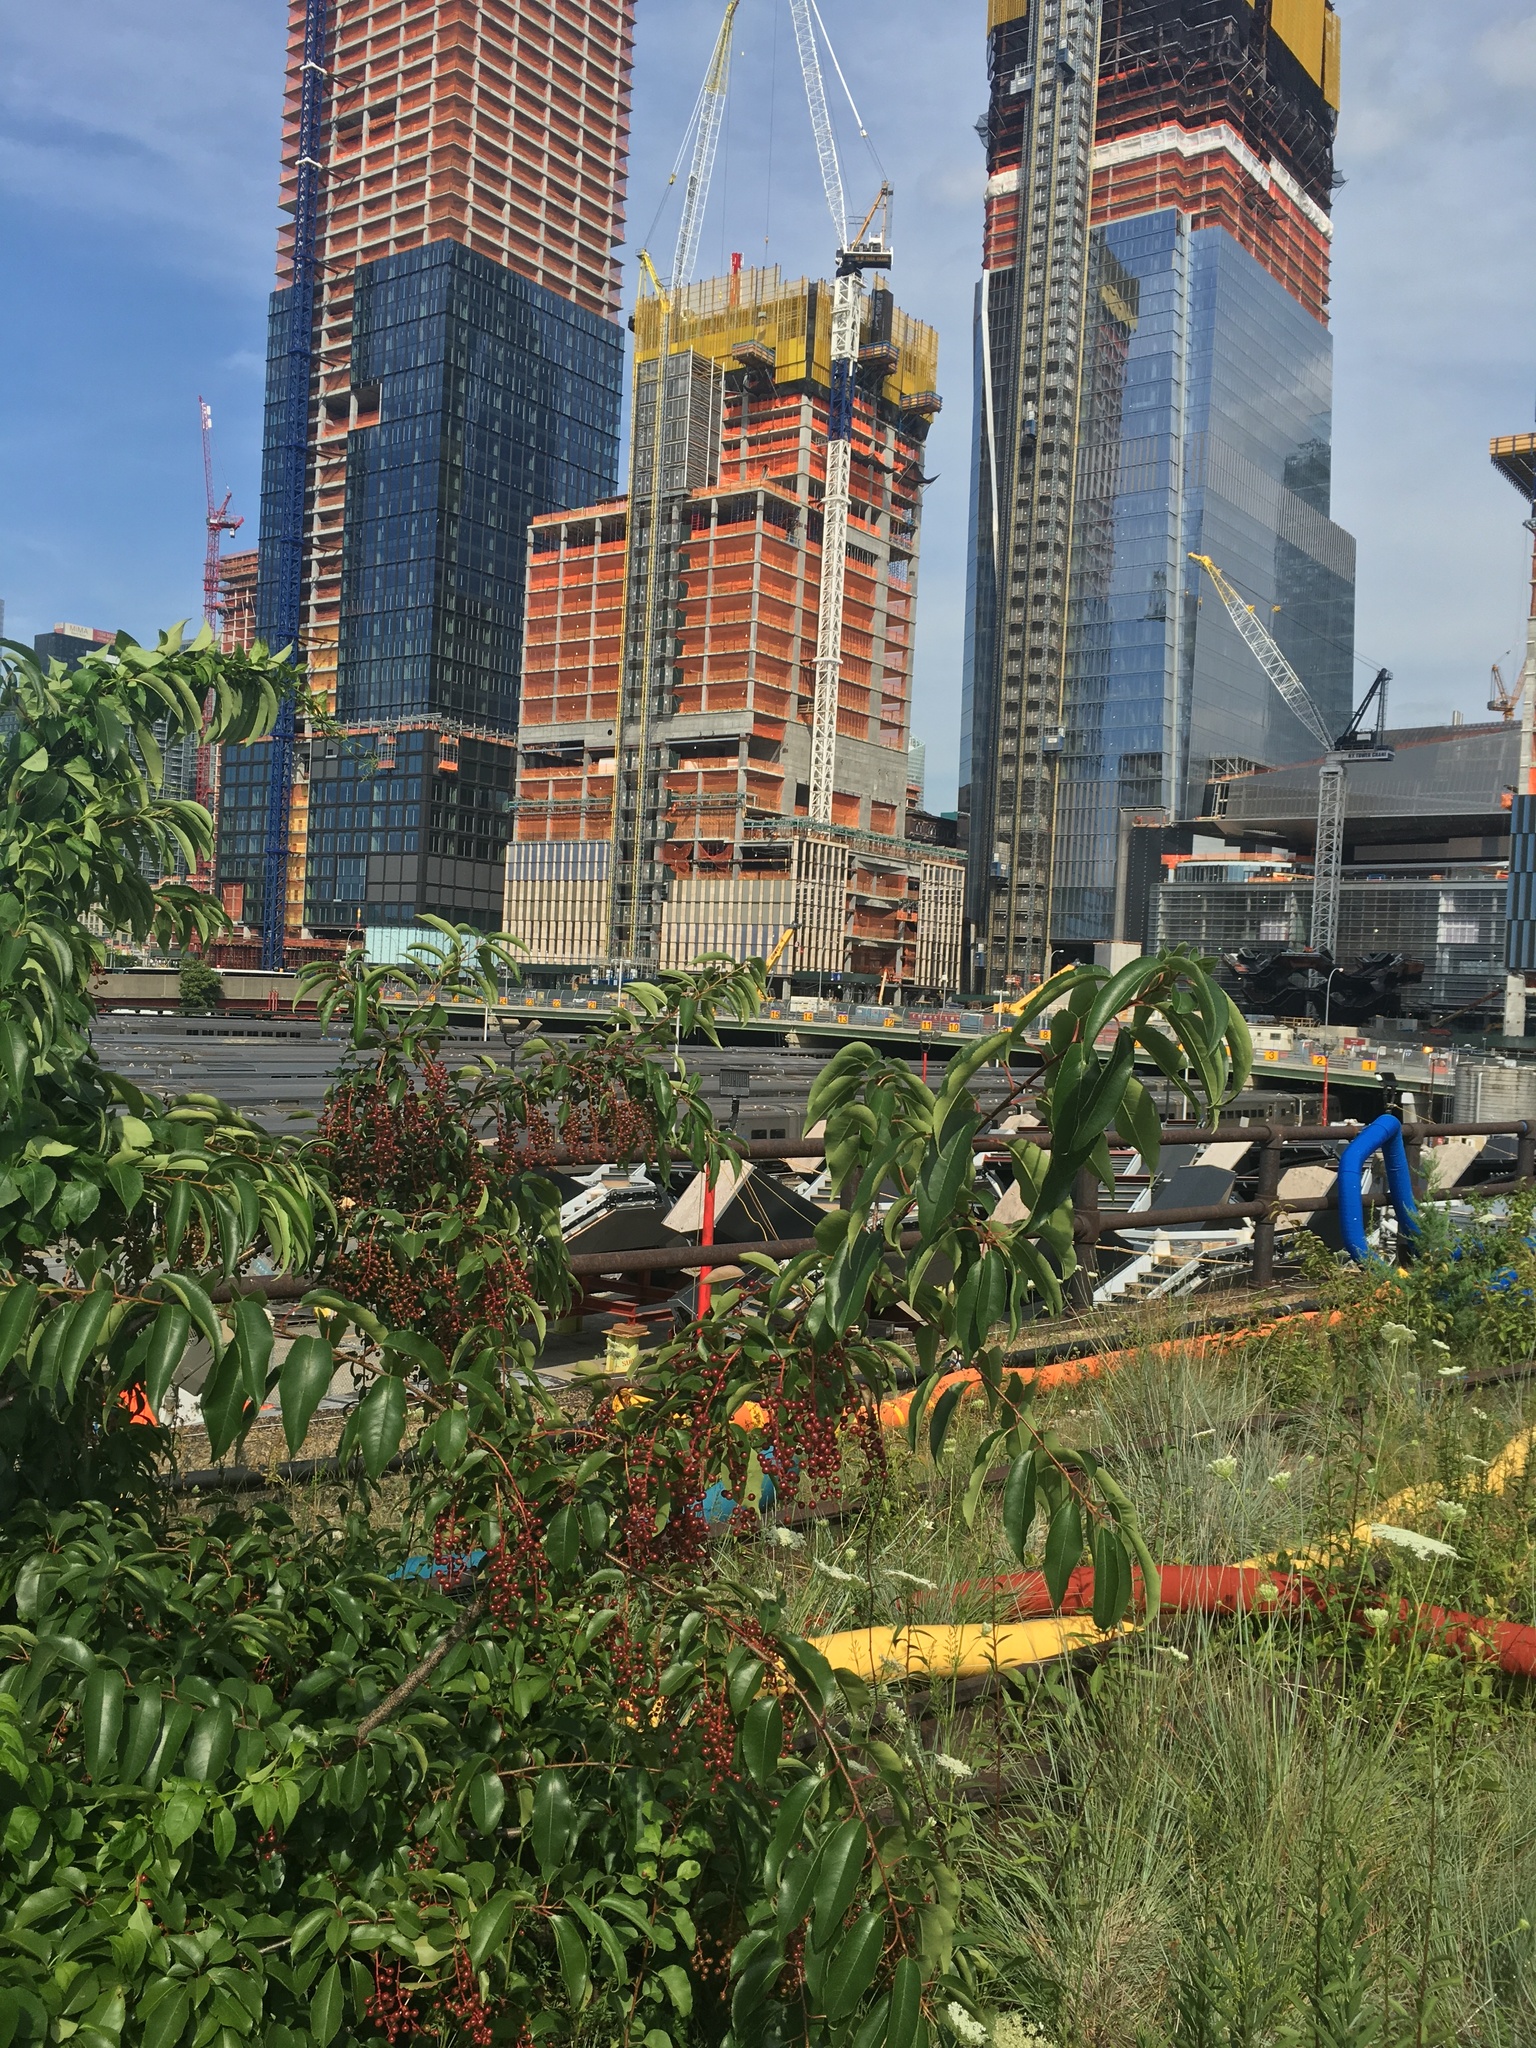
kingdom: Plantae
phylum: Tracheophyta
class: Magnoliopsida
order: Rosales
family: Rosaceae
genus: Prunus
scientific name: Prunus serotina
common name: Black cherry
